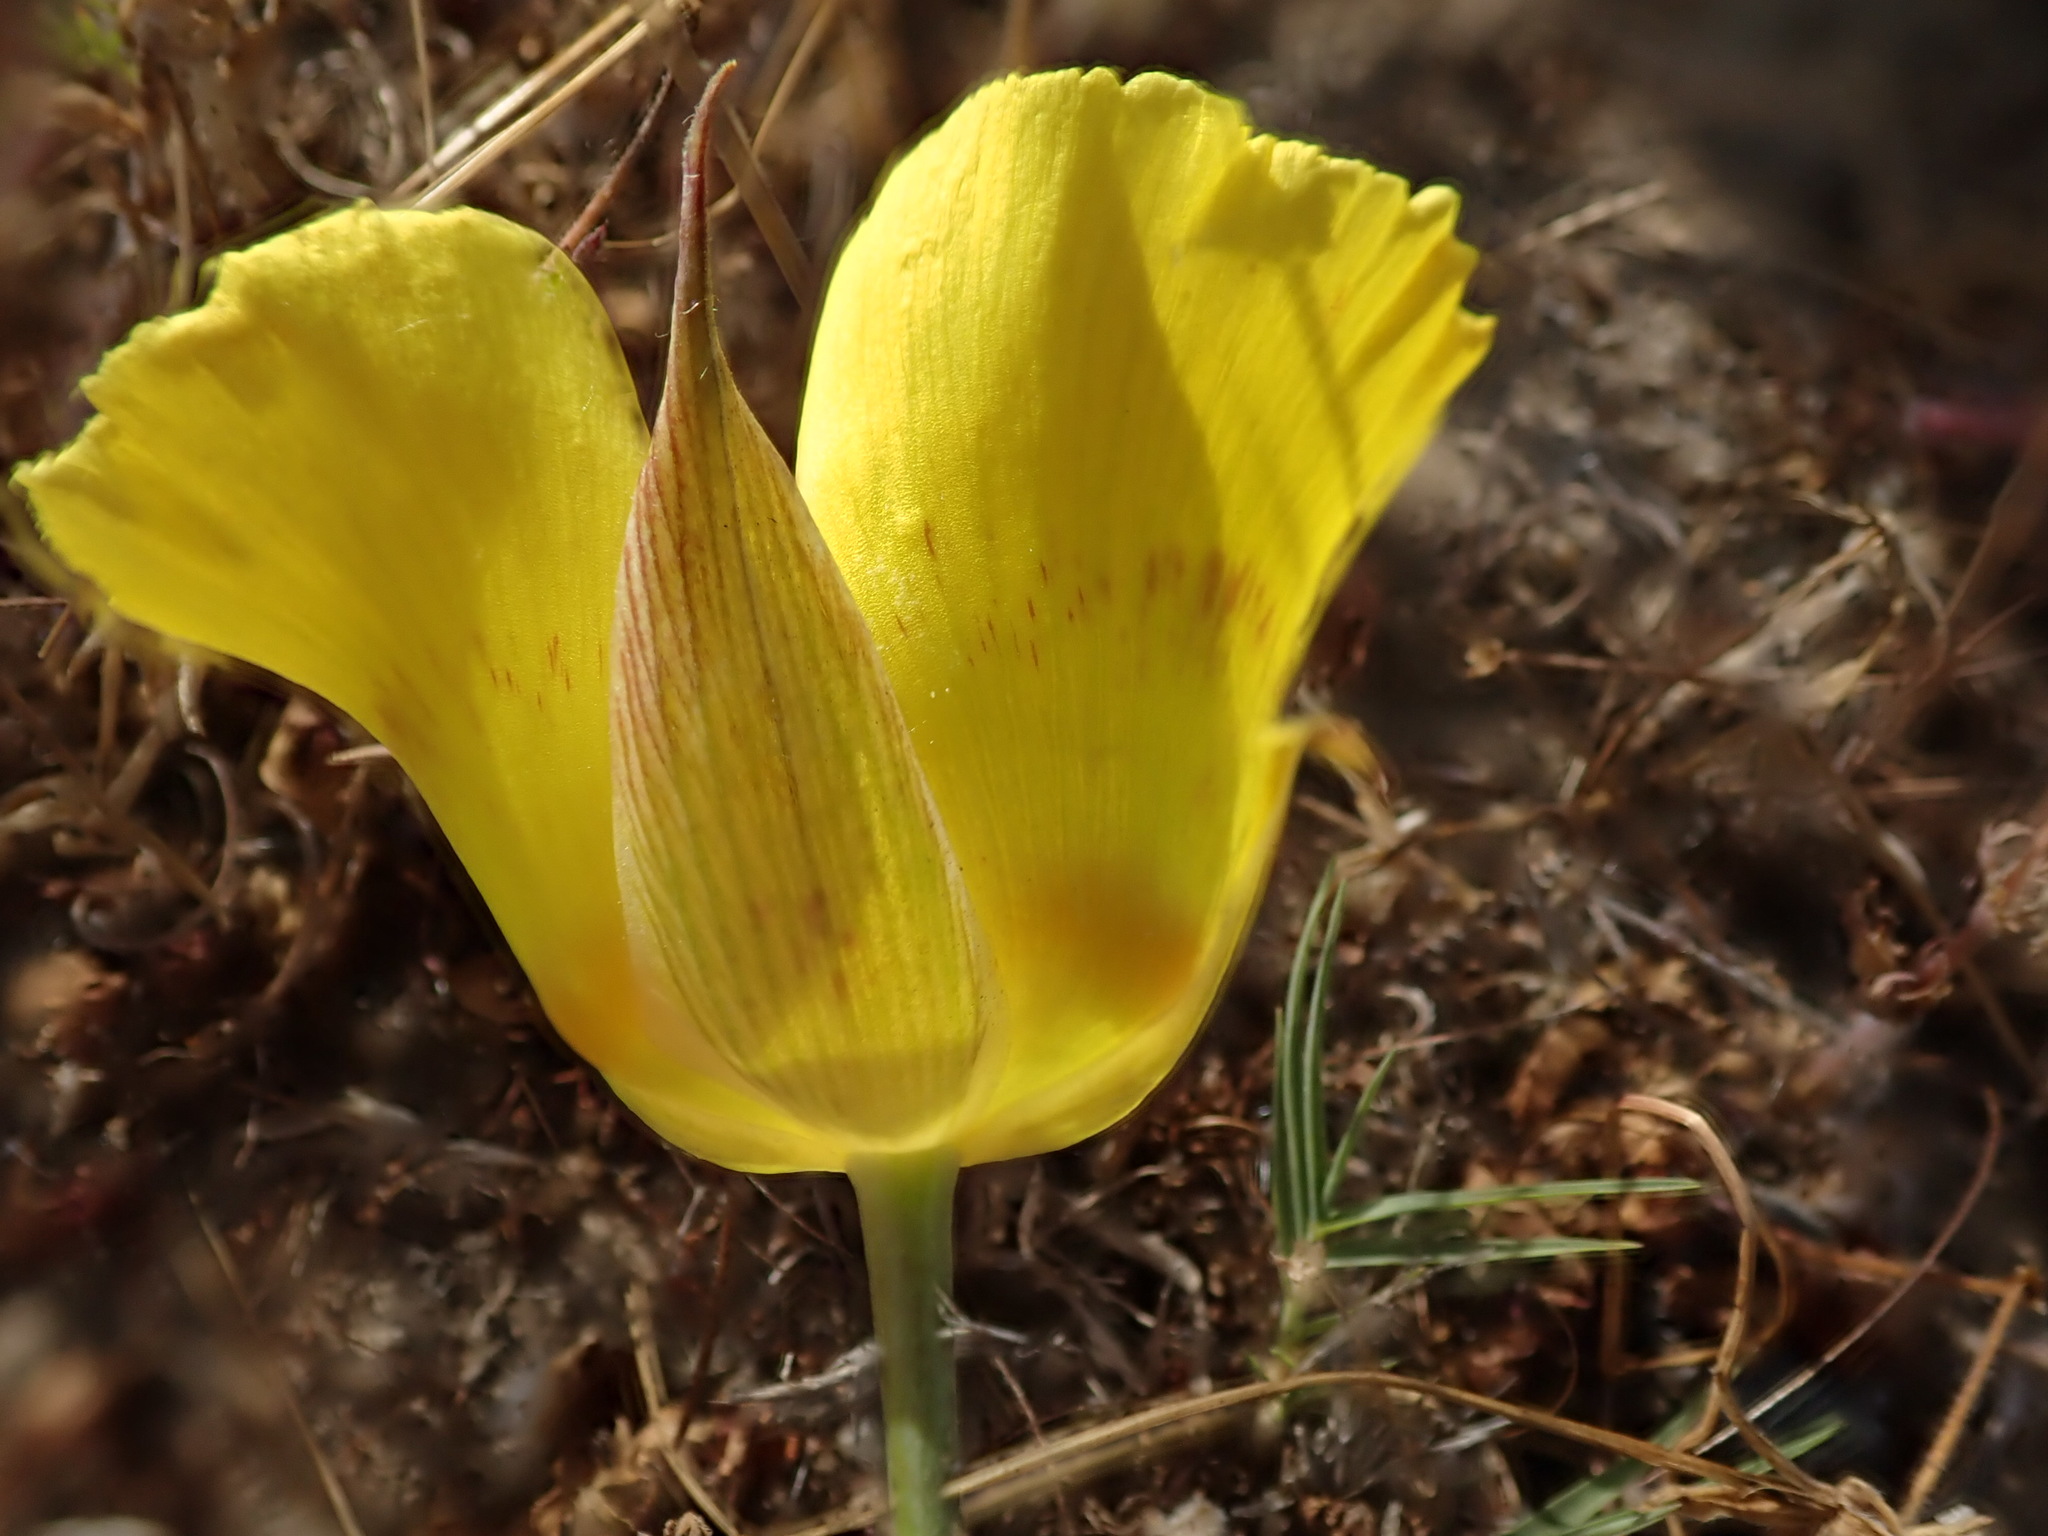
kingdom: Plantae
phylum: Tracheophyta
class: Liliopsida
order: Liliales
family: Liliaceae
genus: Calochortus
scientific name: Calochortus luteus
